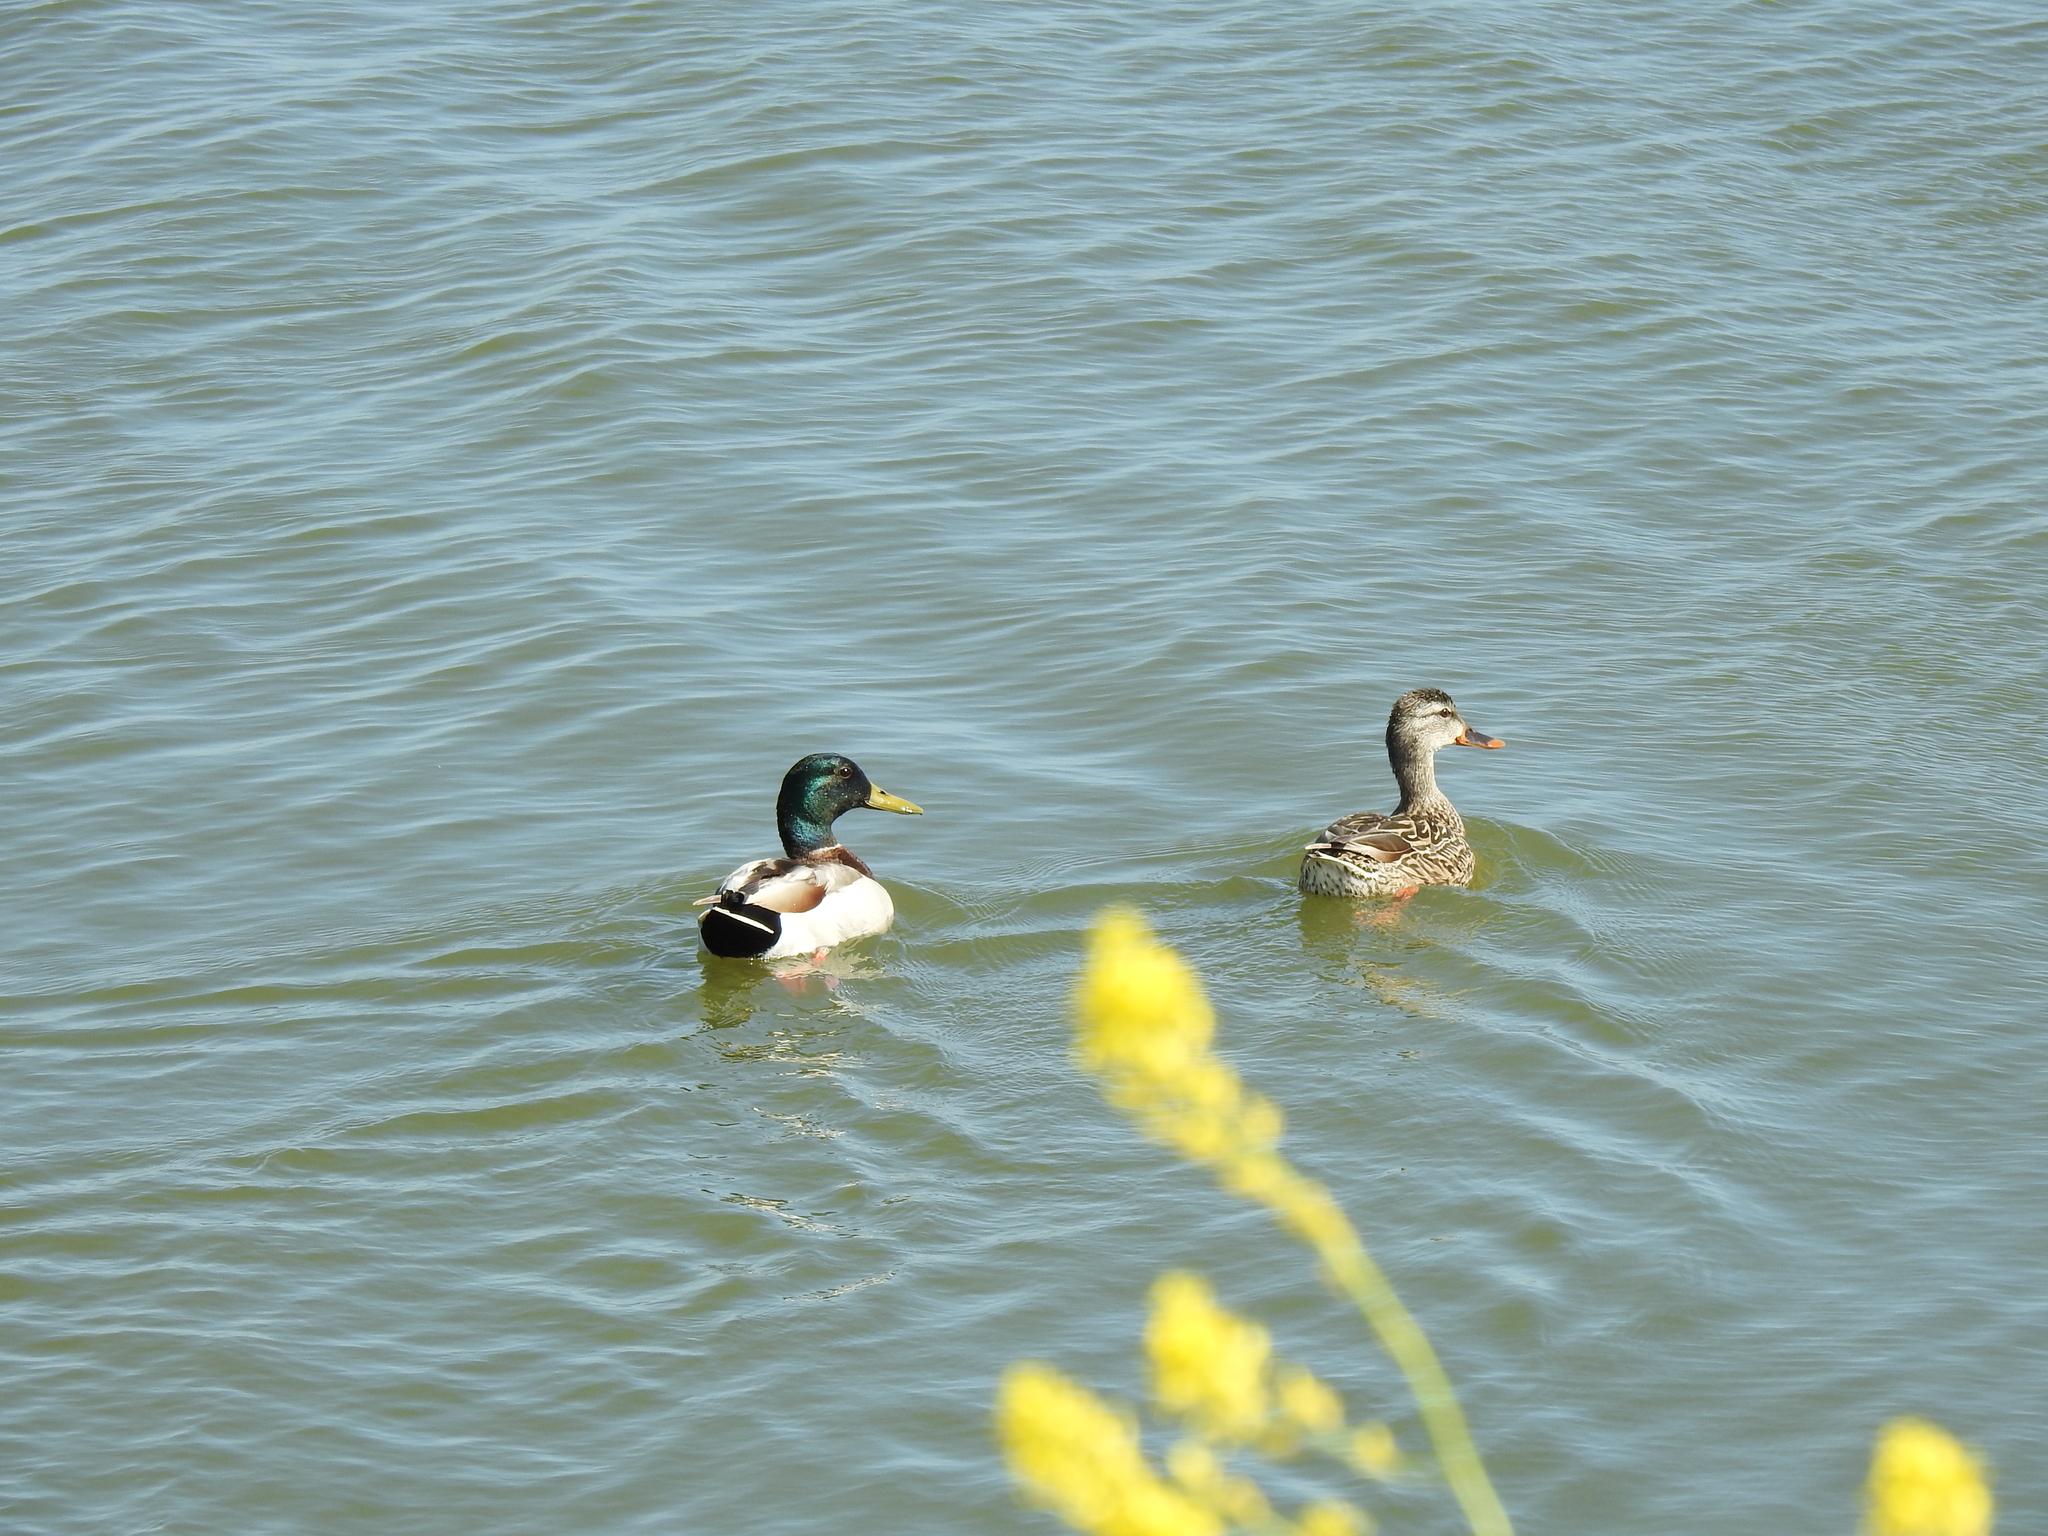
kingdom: Animalia
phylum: Chordata
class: Aves
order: Anseriformes
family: Anatidae
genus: Anas
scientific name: Anas platyrhynchos
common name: Mallard
